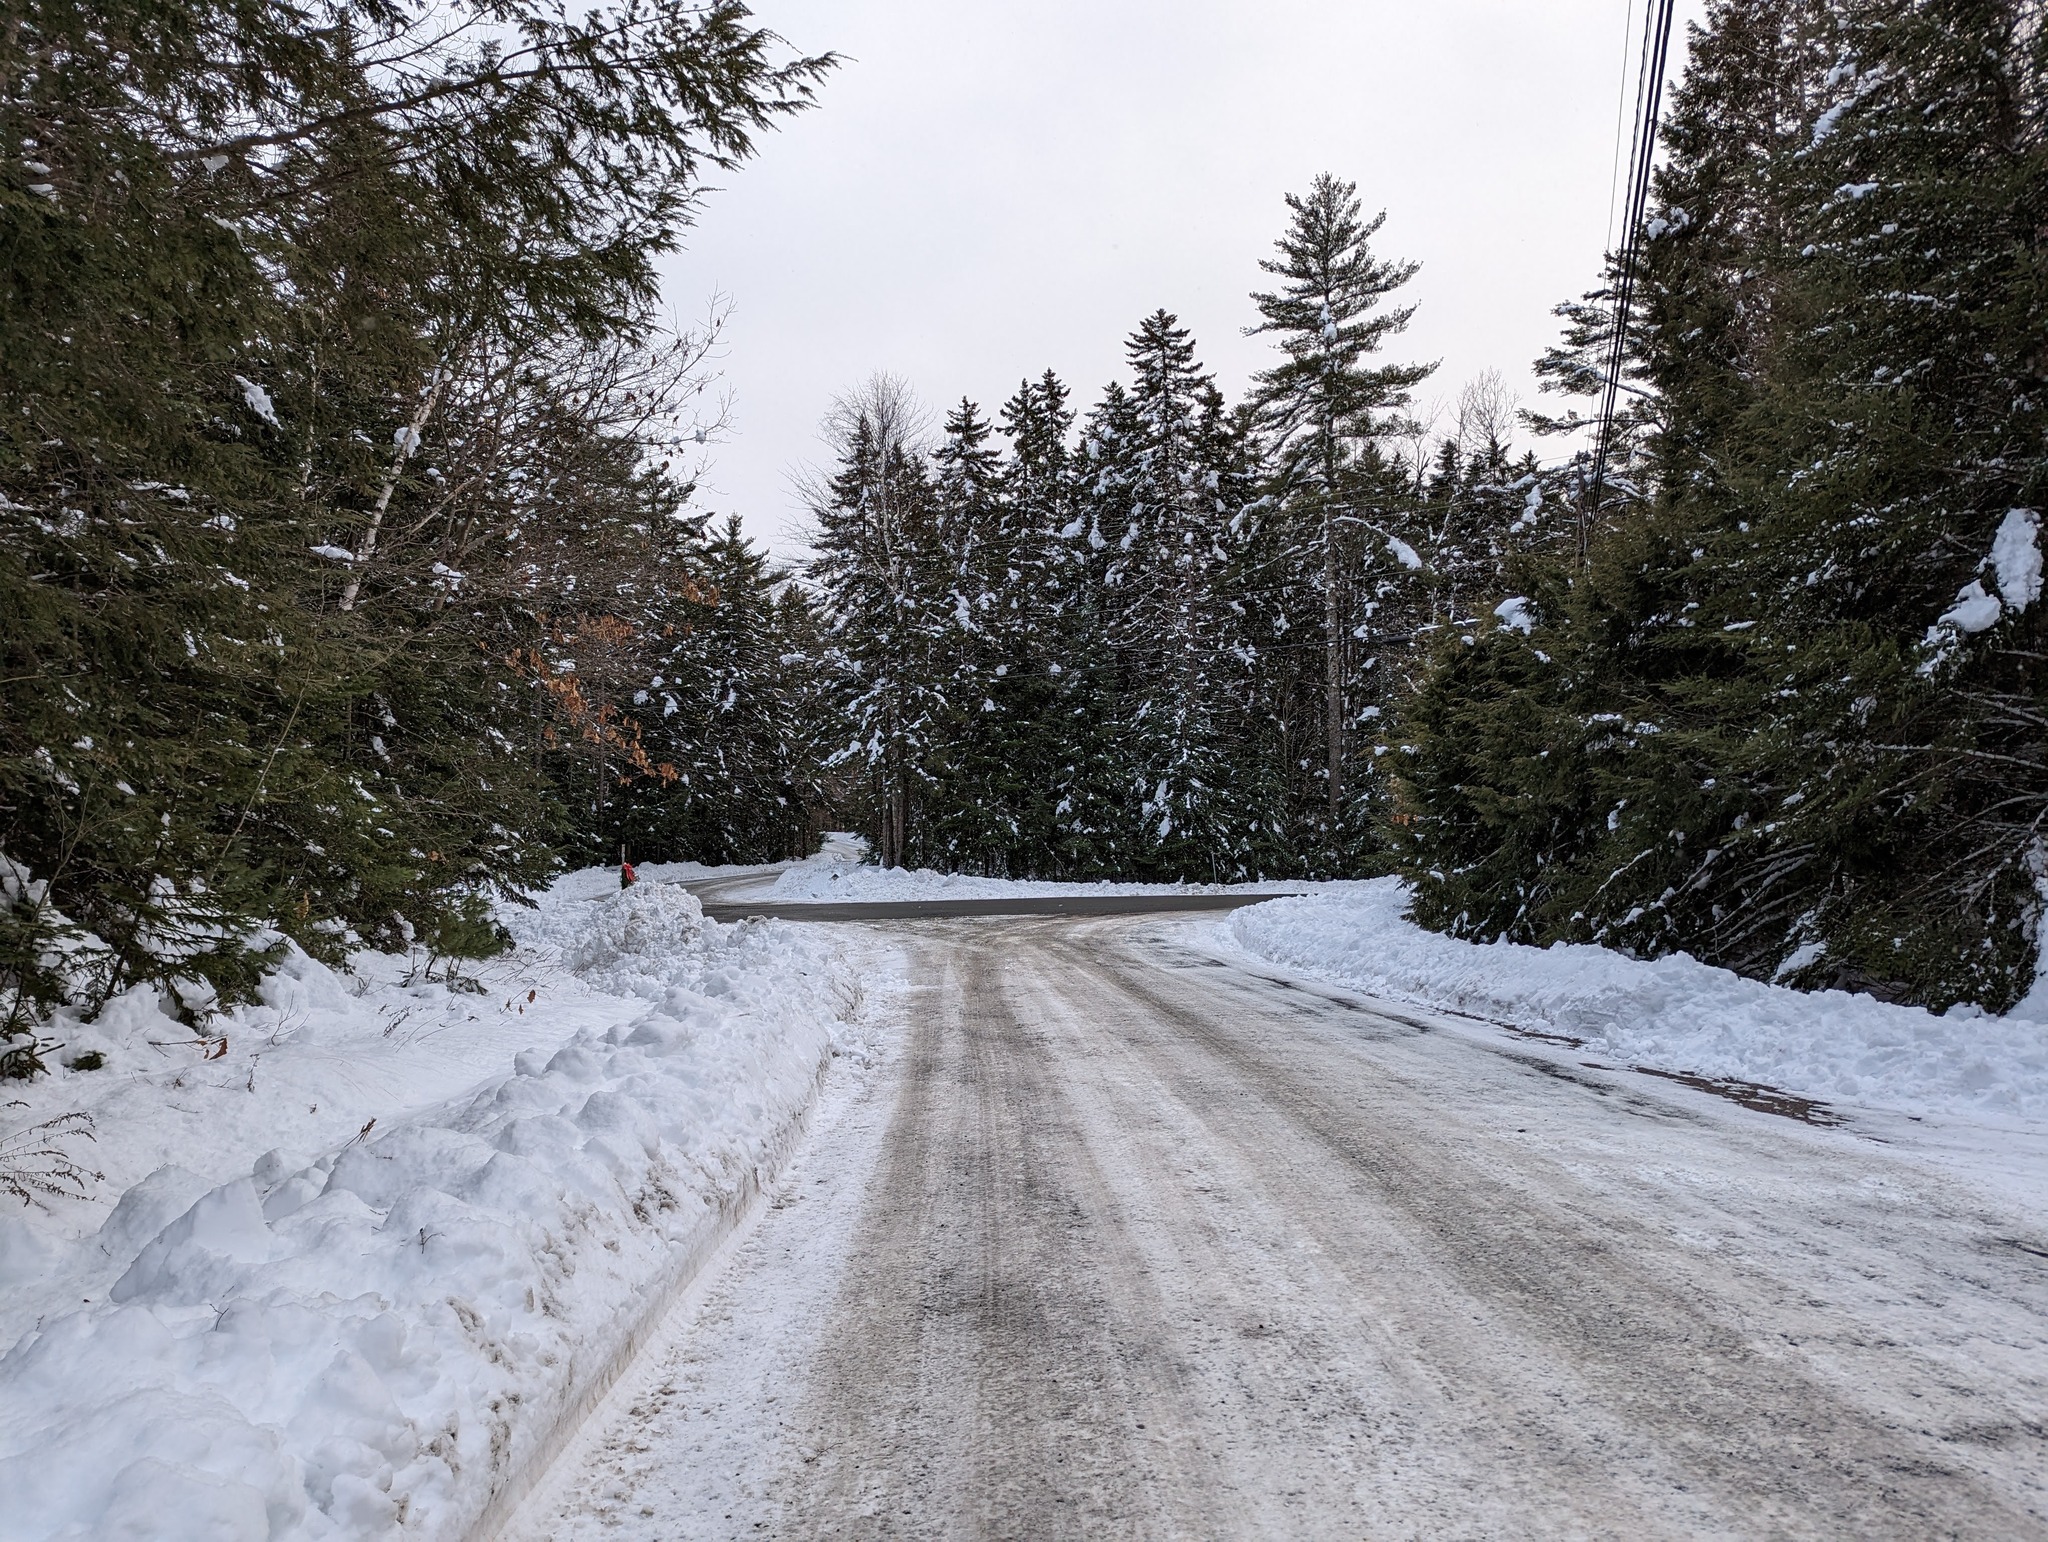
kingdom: Plantae
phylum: Tracheophyta
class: Pinopsida
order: Pinales
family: Pinaceae
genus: Pinus
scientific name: Pinus strobus
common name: Weymouth pine
